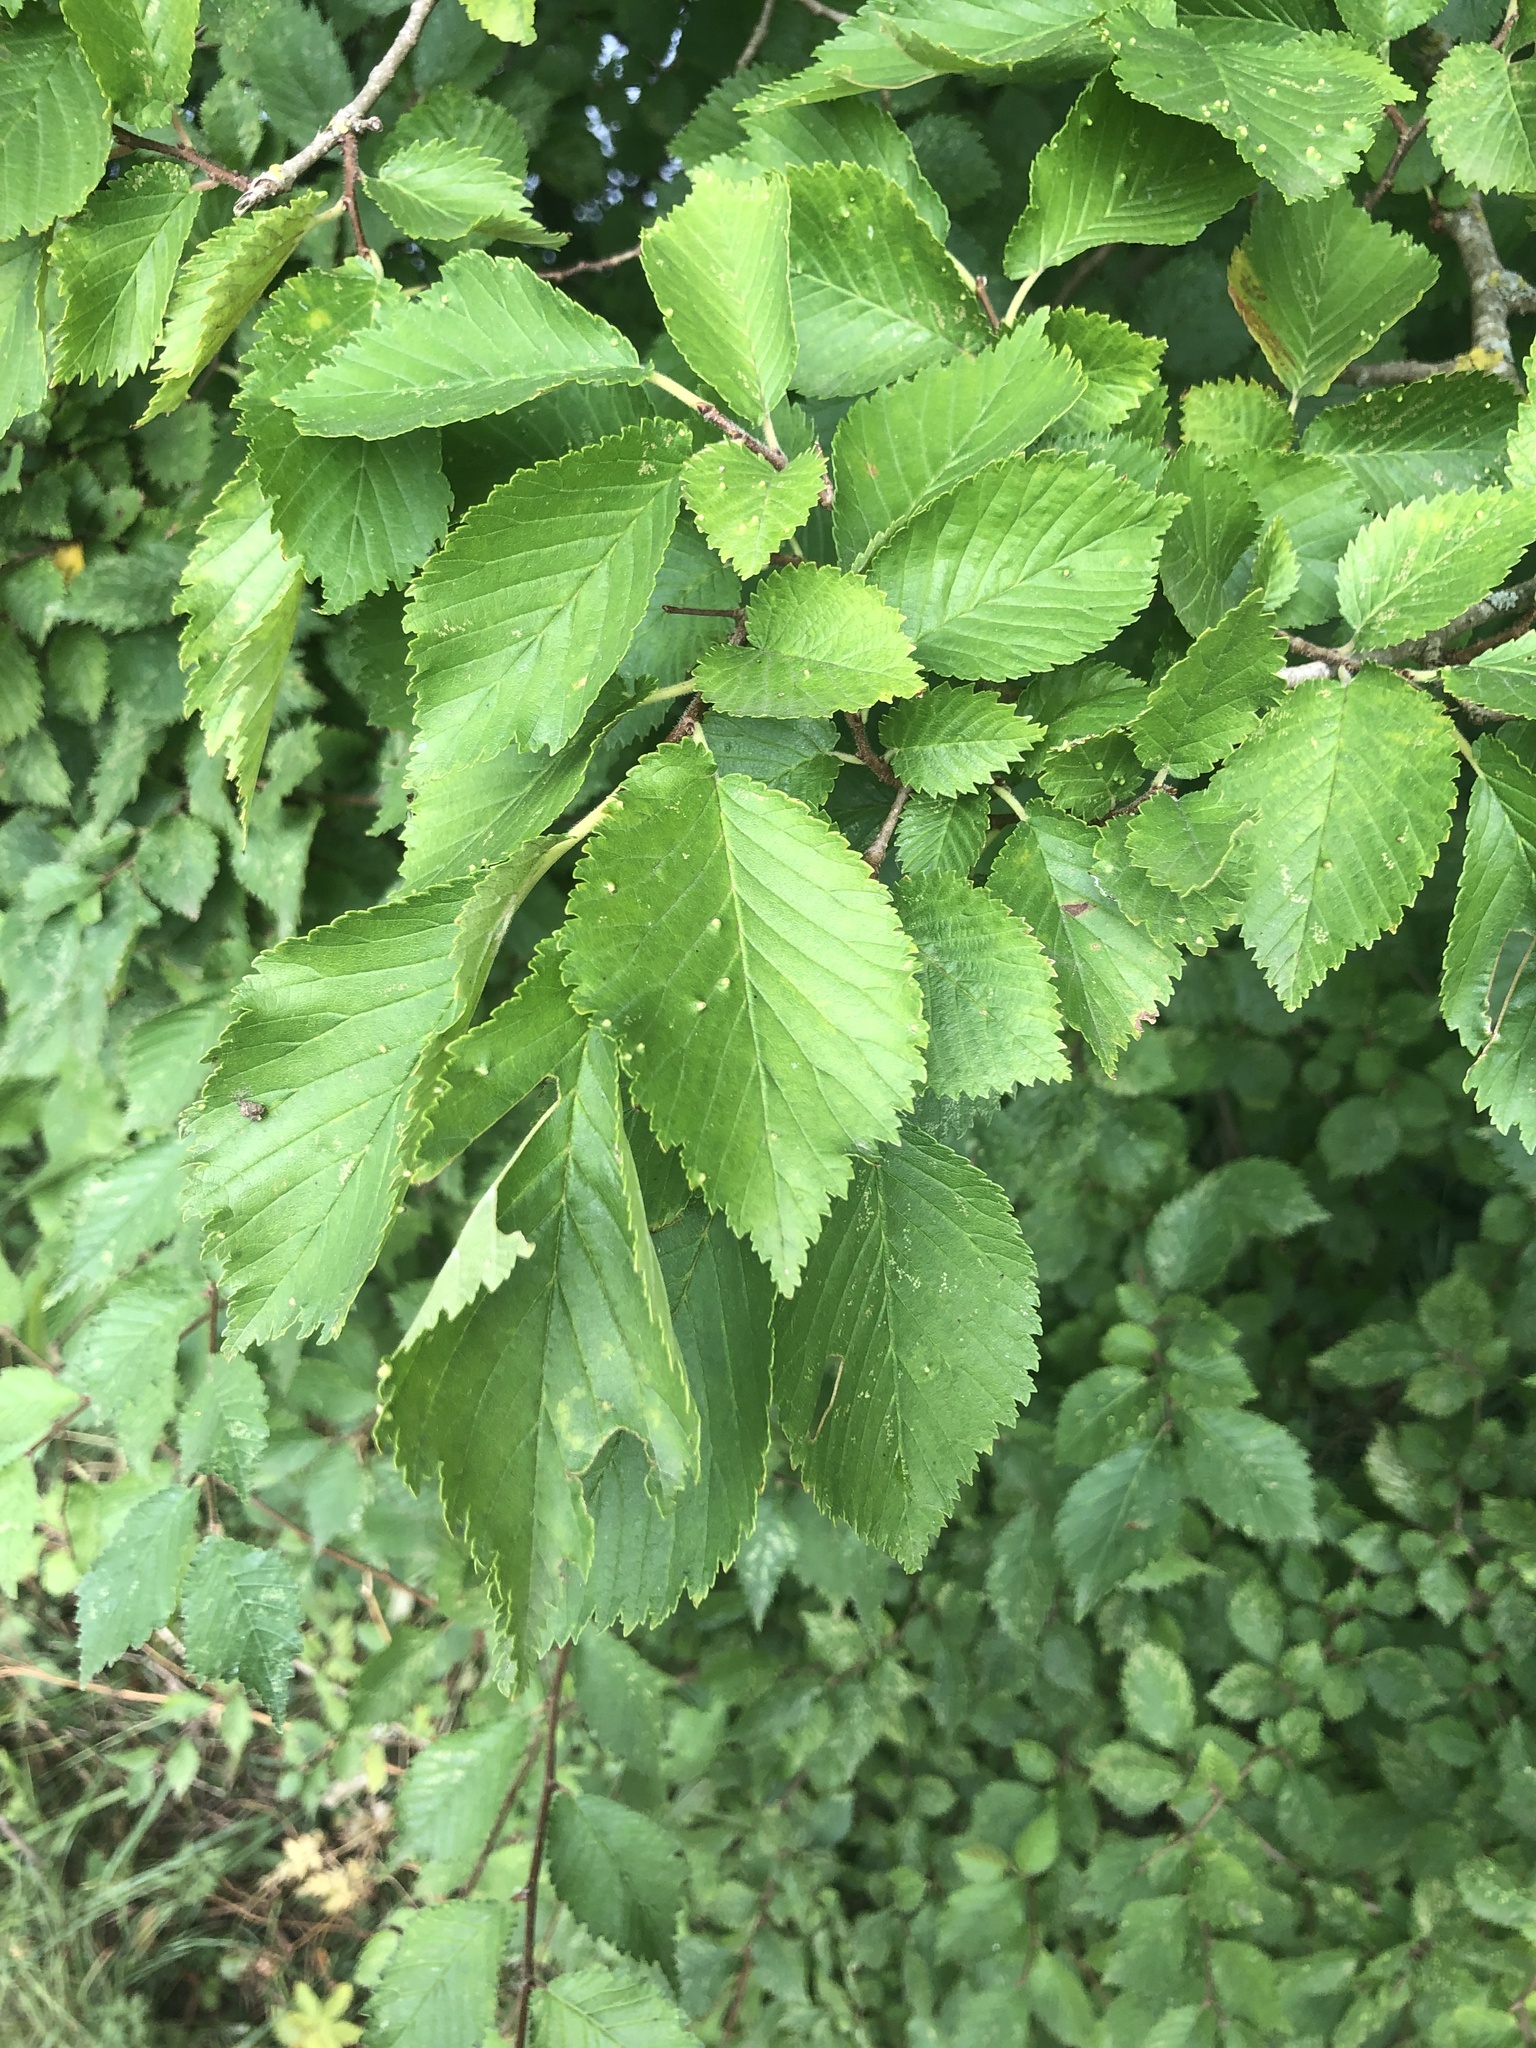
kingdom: Plantae
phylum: Tracheophyta
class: Magnoliopsida
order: Rosales
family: Ulmaceae
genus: Ulmus
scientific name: Ulmus minor
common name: Small-leaved elm
